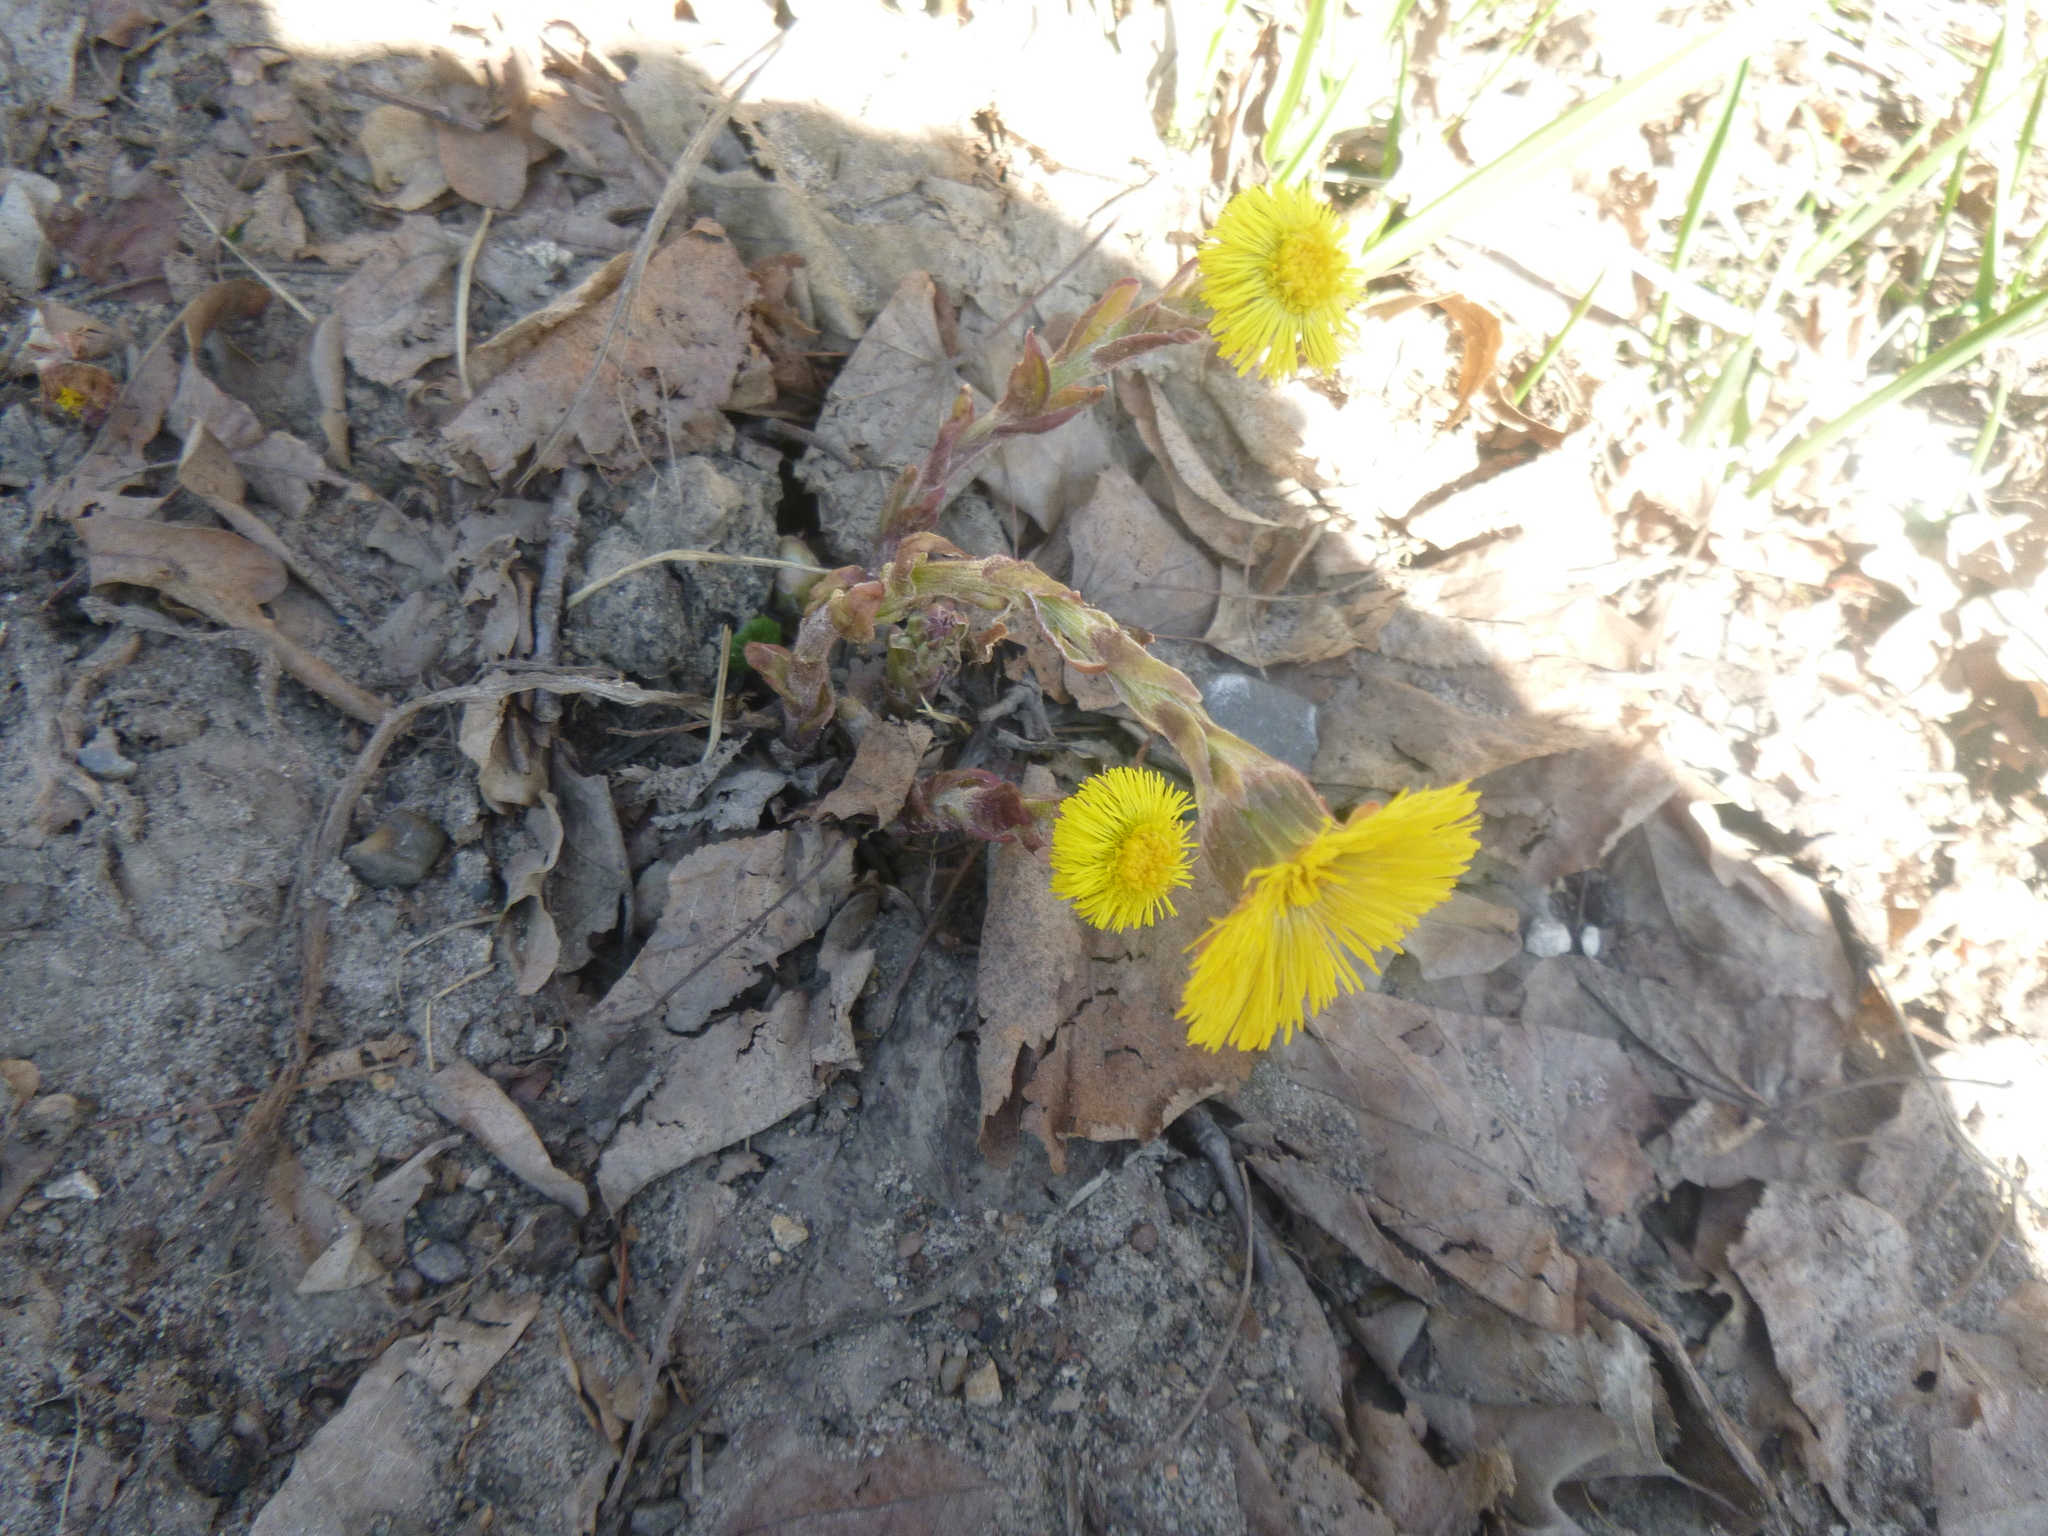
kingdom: Plantae
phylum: Tracheophyta
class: Magnoliopsida
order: Asterales
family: Asteraceae
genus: Tussilago
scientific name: Tussilago farfara
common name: Coltsfoot
